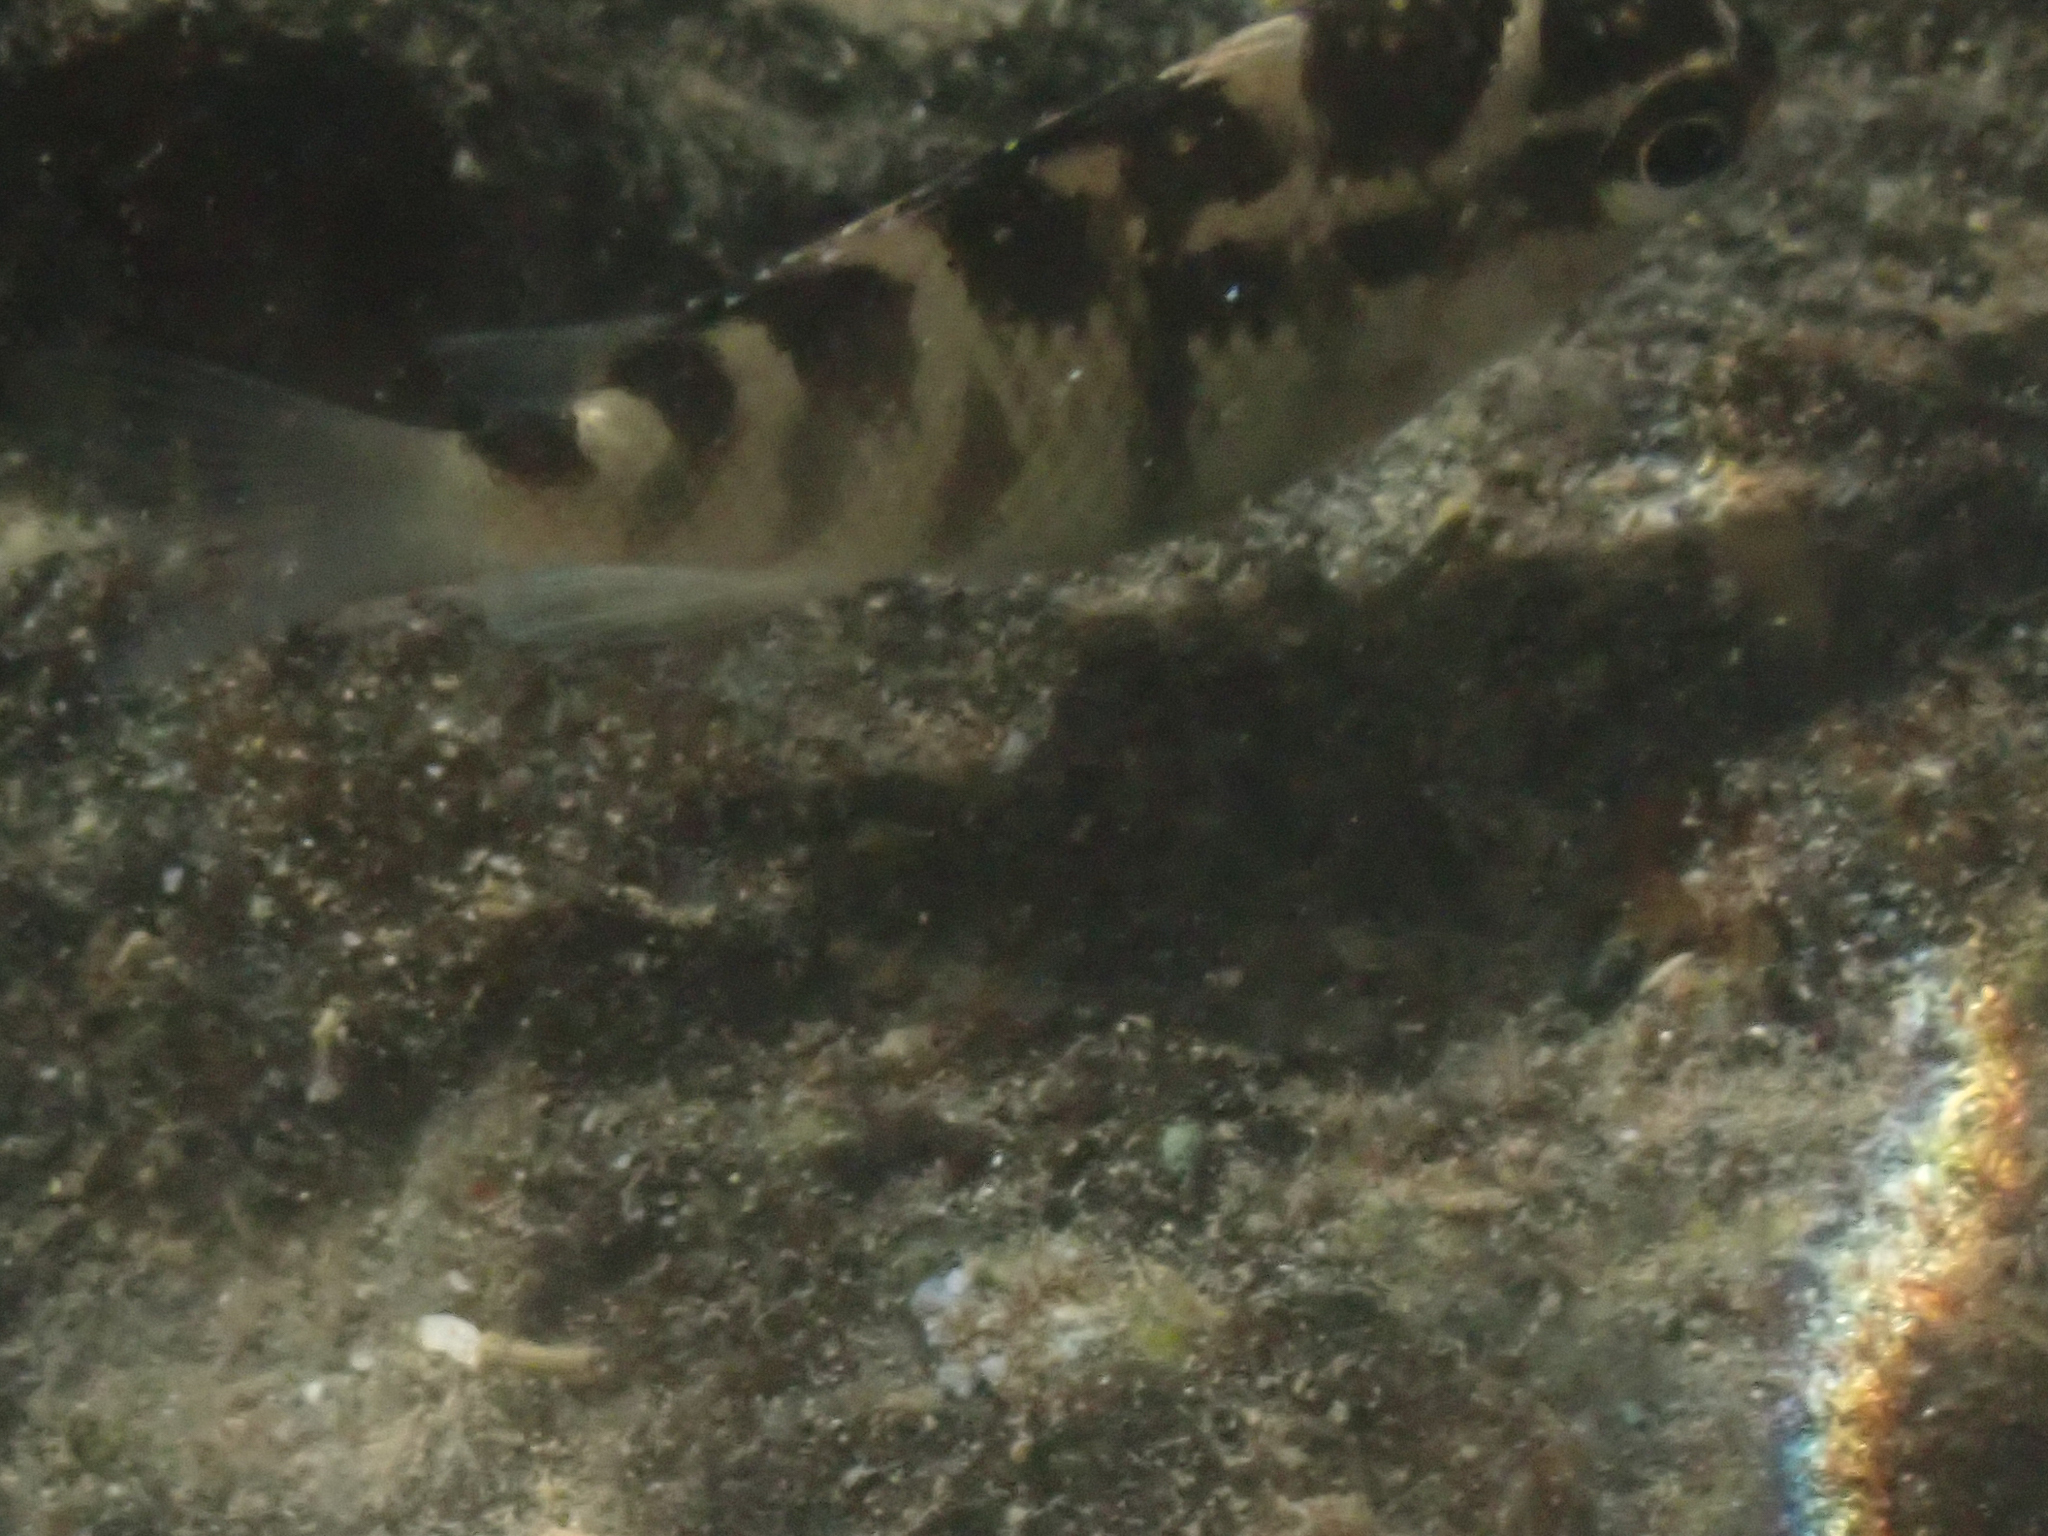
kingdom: Animalia
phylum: Chordata
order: Perciformes
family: Pomacentridae
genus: Abudefduf
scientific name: Abudefduf concolor
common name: Dusky seargent
